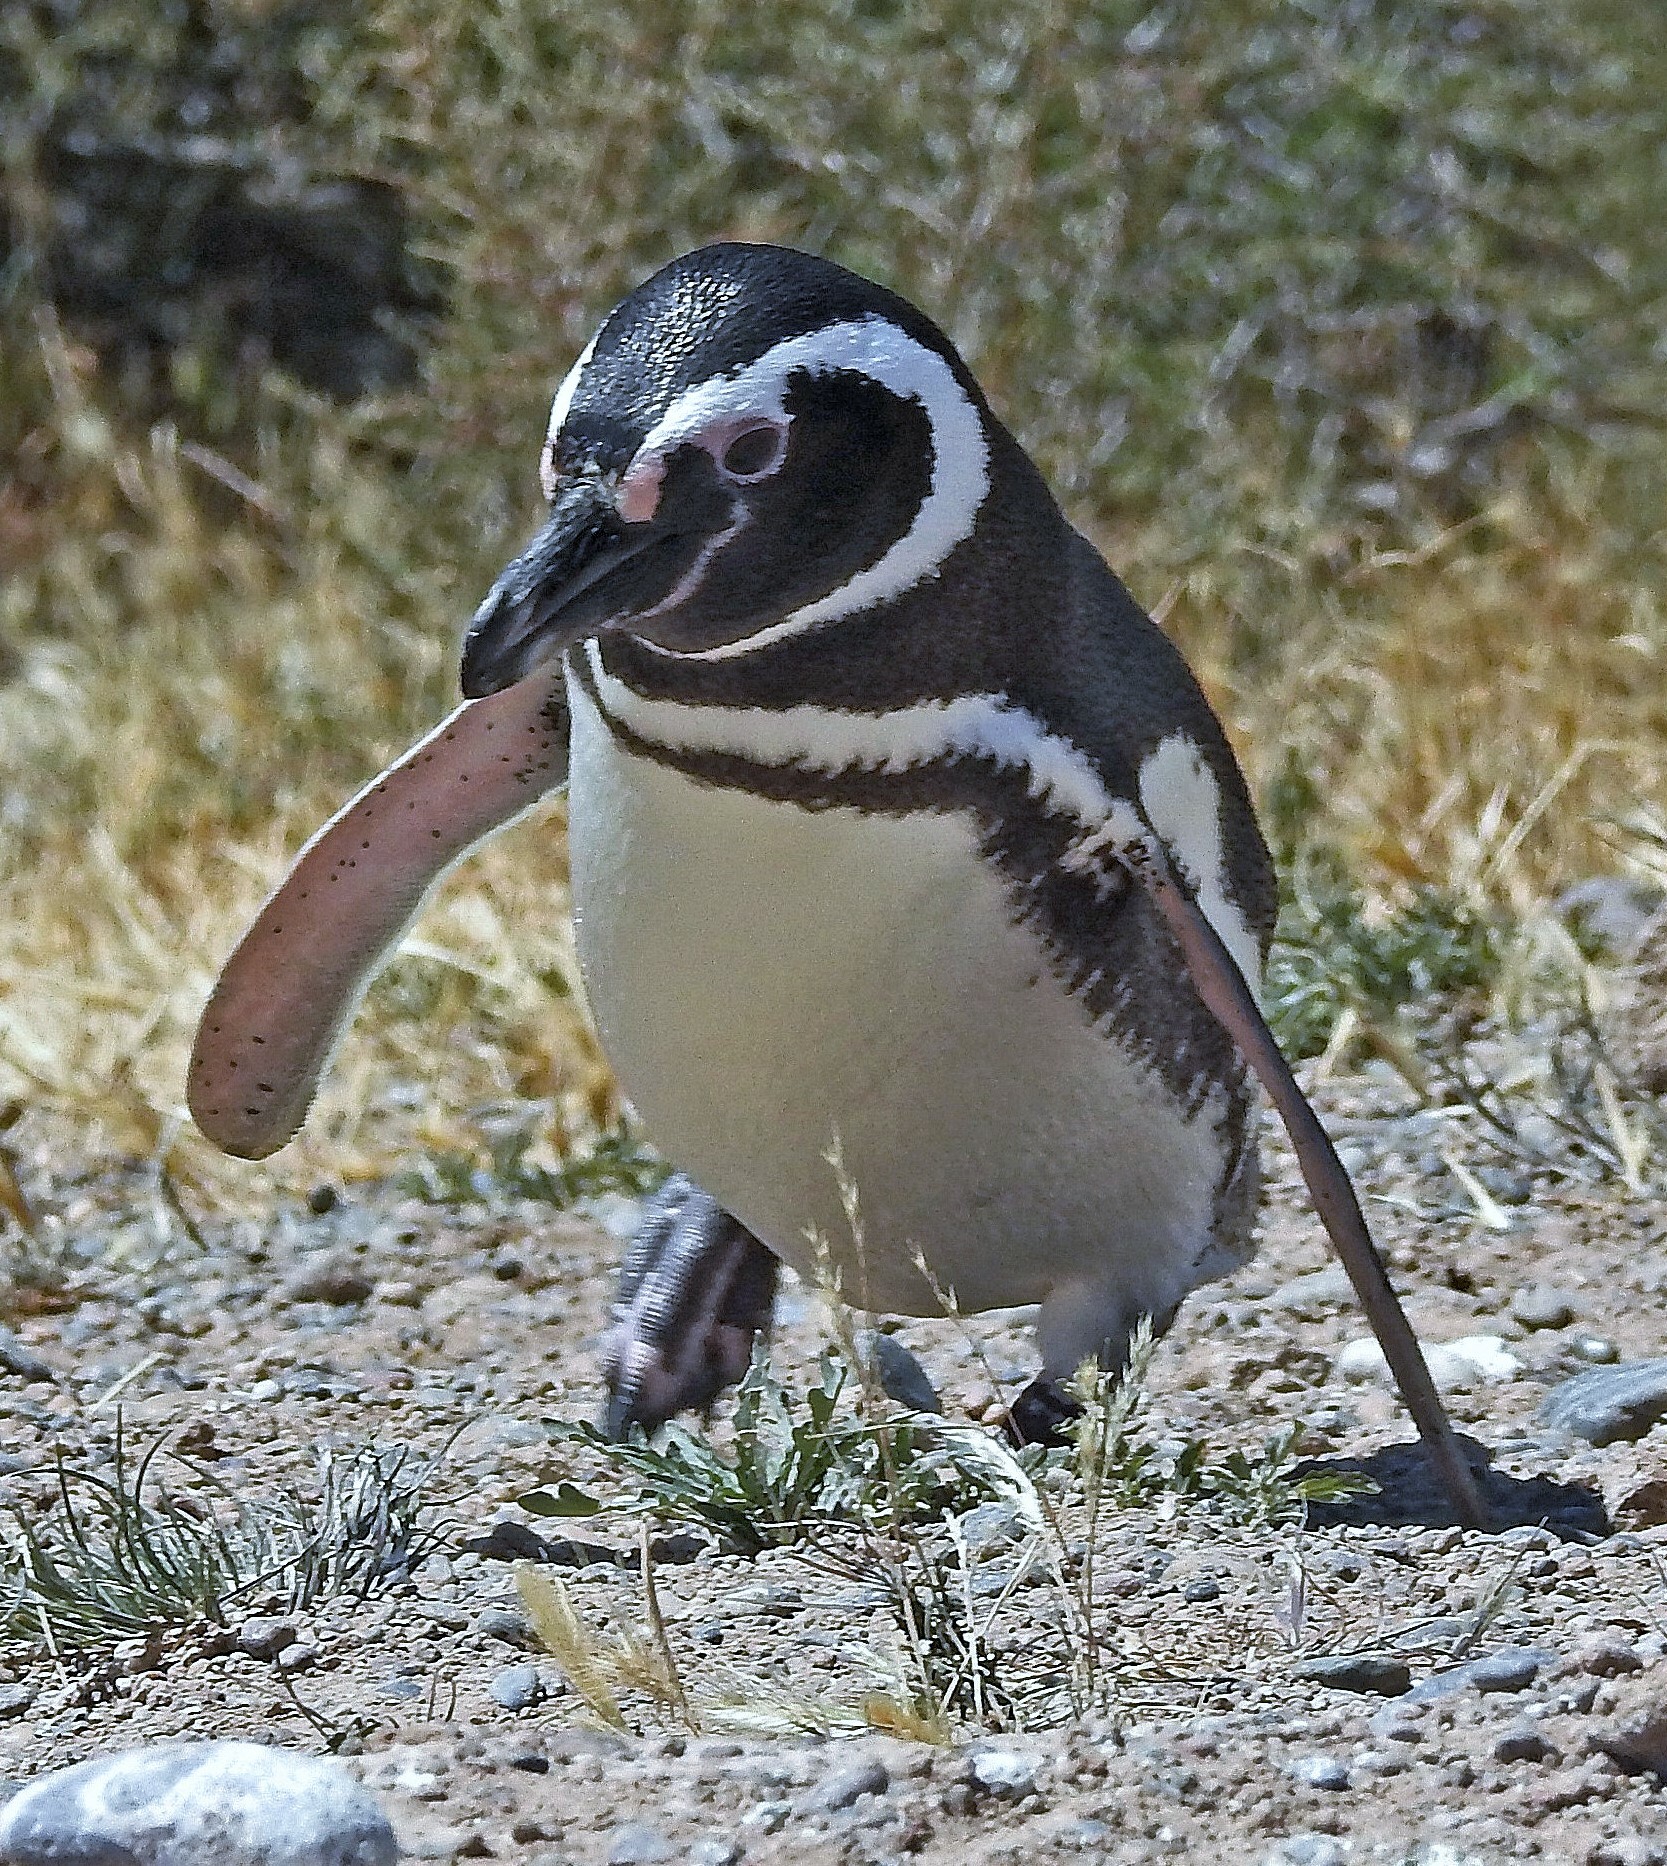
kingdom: Animalia
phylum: Chordata
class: Aves
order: Sphenisciformes
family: Spheniscidae
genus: Spheniscus
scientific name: Spheniscus magellanicus
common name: Magellanic penguin
